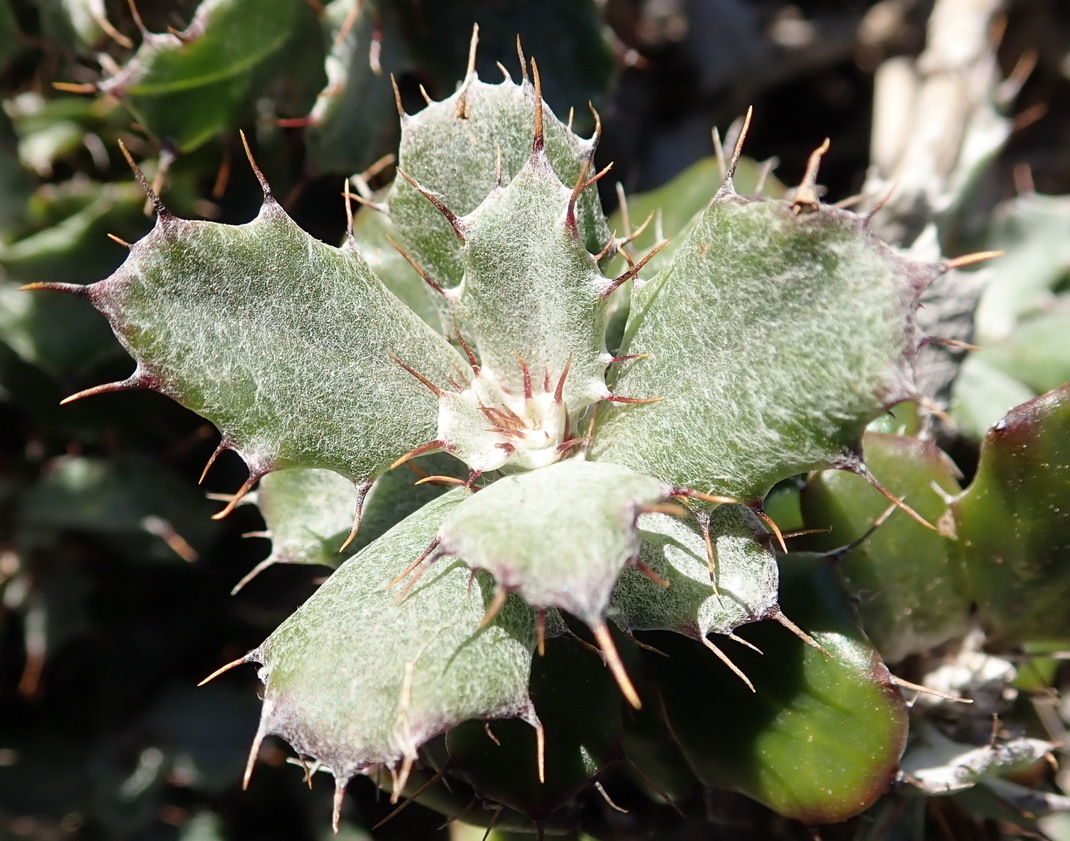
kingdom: Plantae
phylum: Tracheophyta
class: Magnoliopsida
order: Asterales
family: Asteraceae
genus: Berkheya
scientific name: Berkheya coriacea
